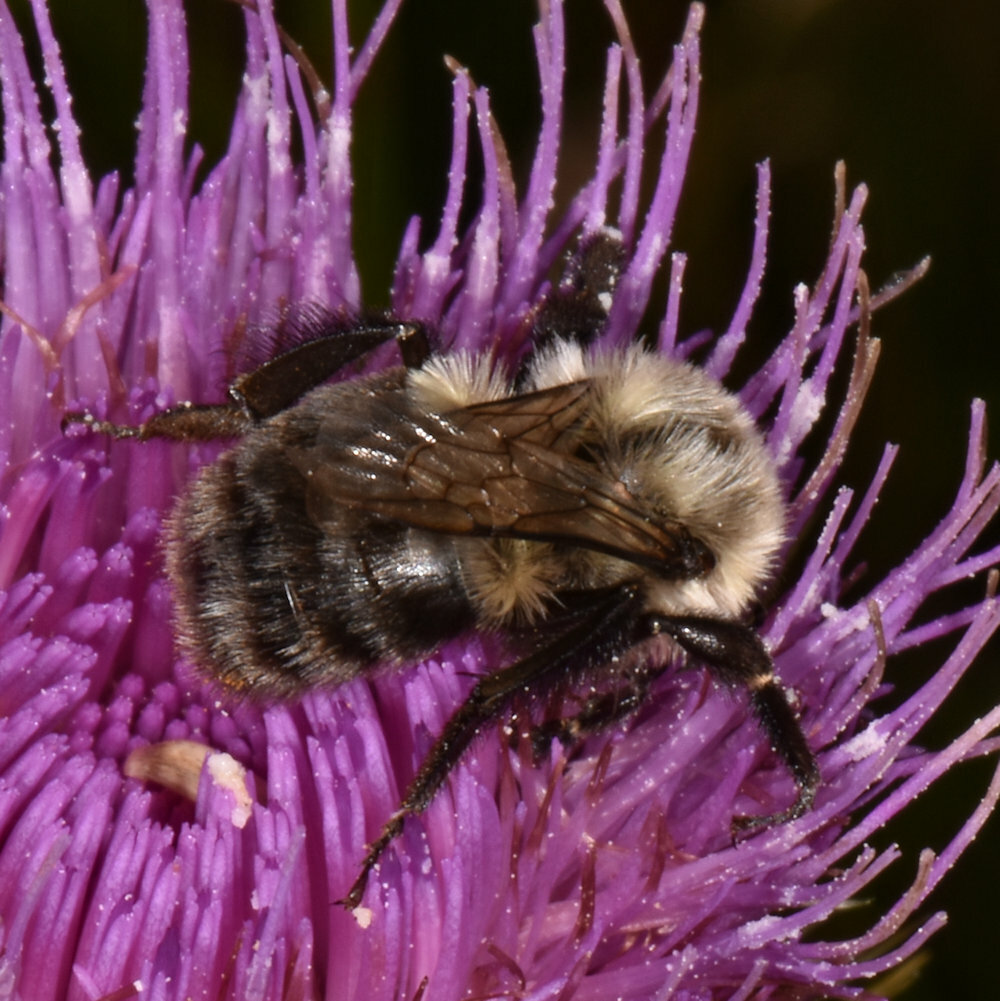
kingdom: Animalia
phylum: Arthropoda
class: Insecta
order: Hymenoptera
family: Apidae
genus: Bombus
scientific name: Bombus impatiens
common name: Common eastern bumble bee
